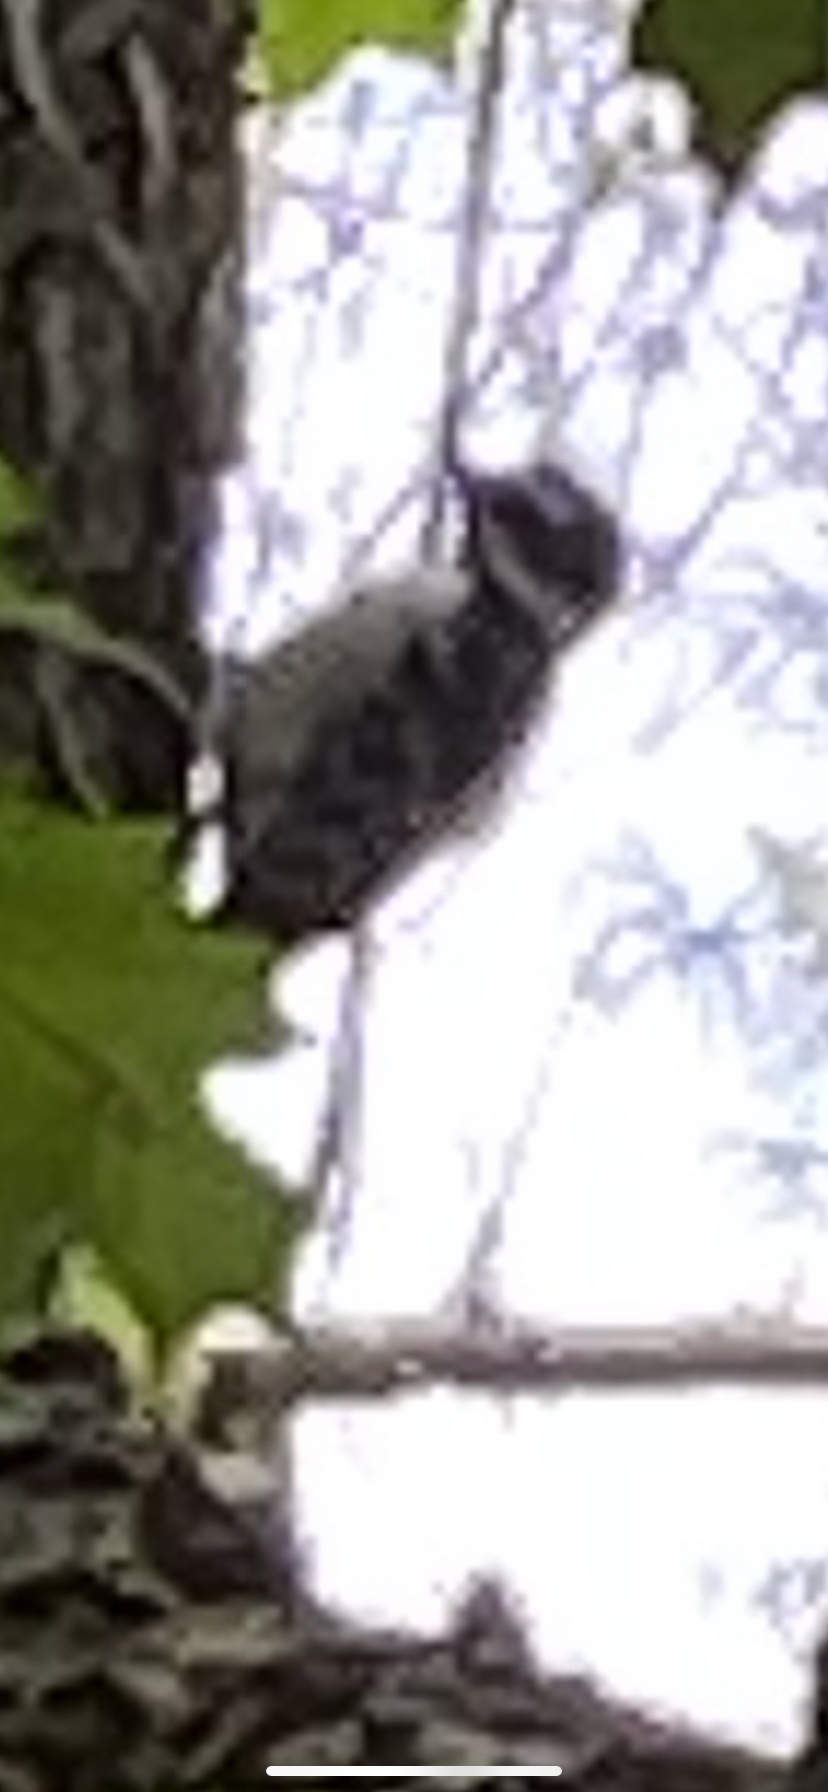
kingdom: Animalia
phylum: Chordata
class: Aves
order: Piciformes
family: Picidae
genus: Dryobates
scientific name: Dryobates pubescens
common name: Downy woodpecker
